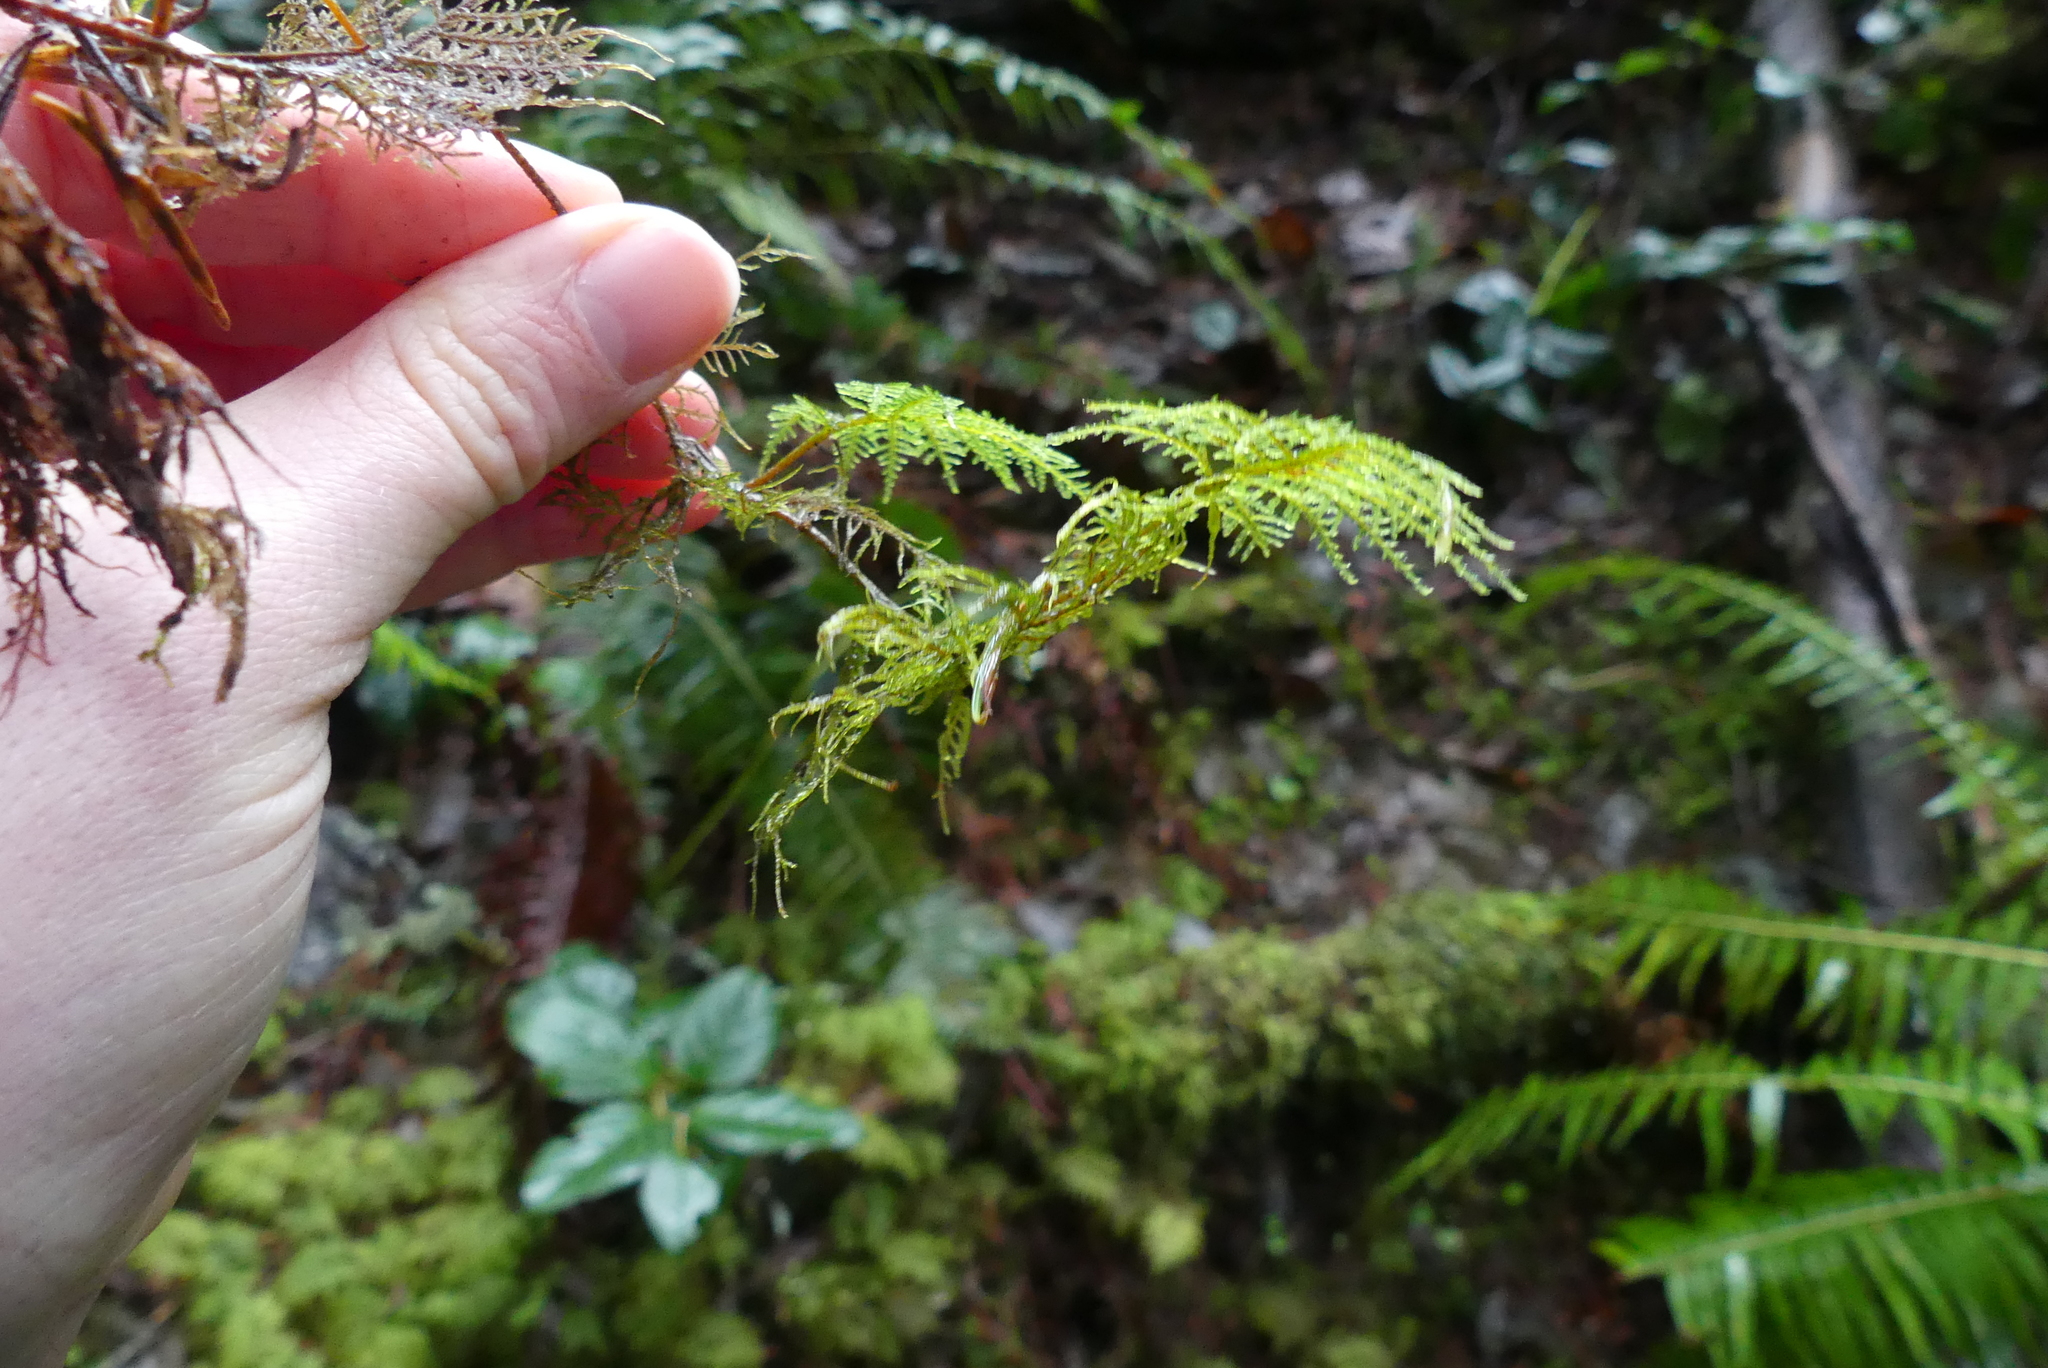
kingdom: Plantae
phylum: Bryophyta
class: Bryopsida
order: Hypnales
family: Hylocomiaceae
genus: Hylocomium
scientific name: Hylocomium splendens
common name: Stairstep moss
